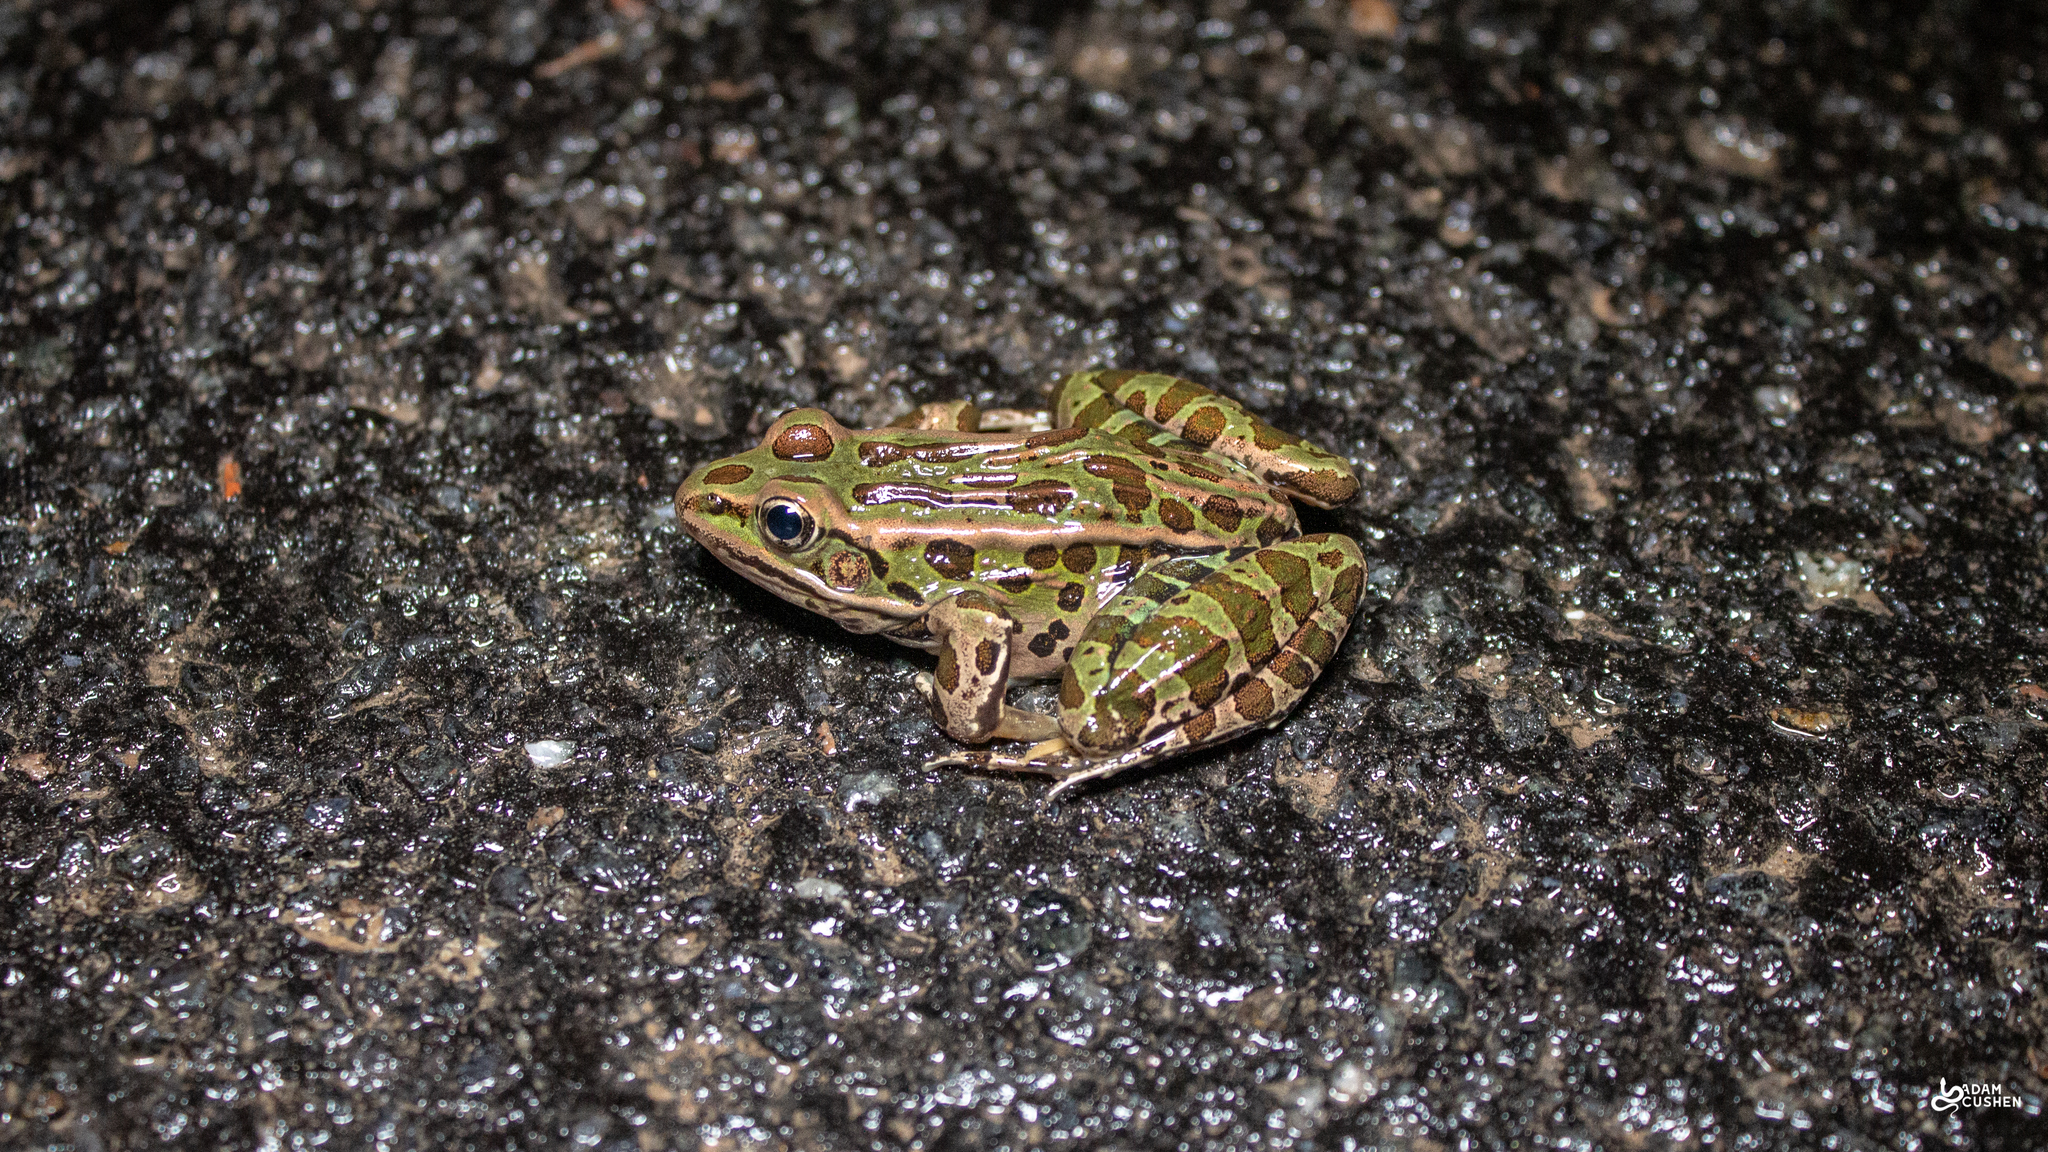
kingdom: Animalia
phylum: Chordata
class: Amphibia
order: Anura
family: Ranidae
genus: Lithobates
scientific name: Lithobates pipiens
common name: Northern leopard frog
